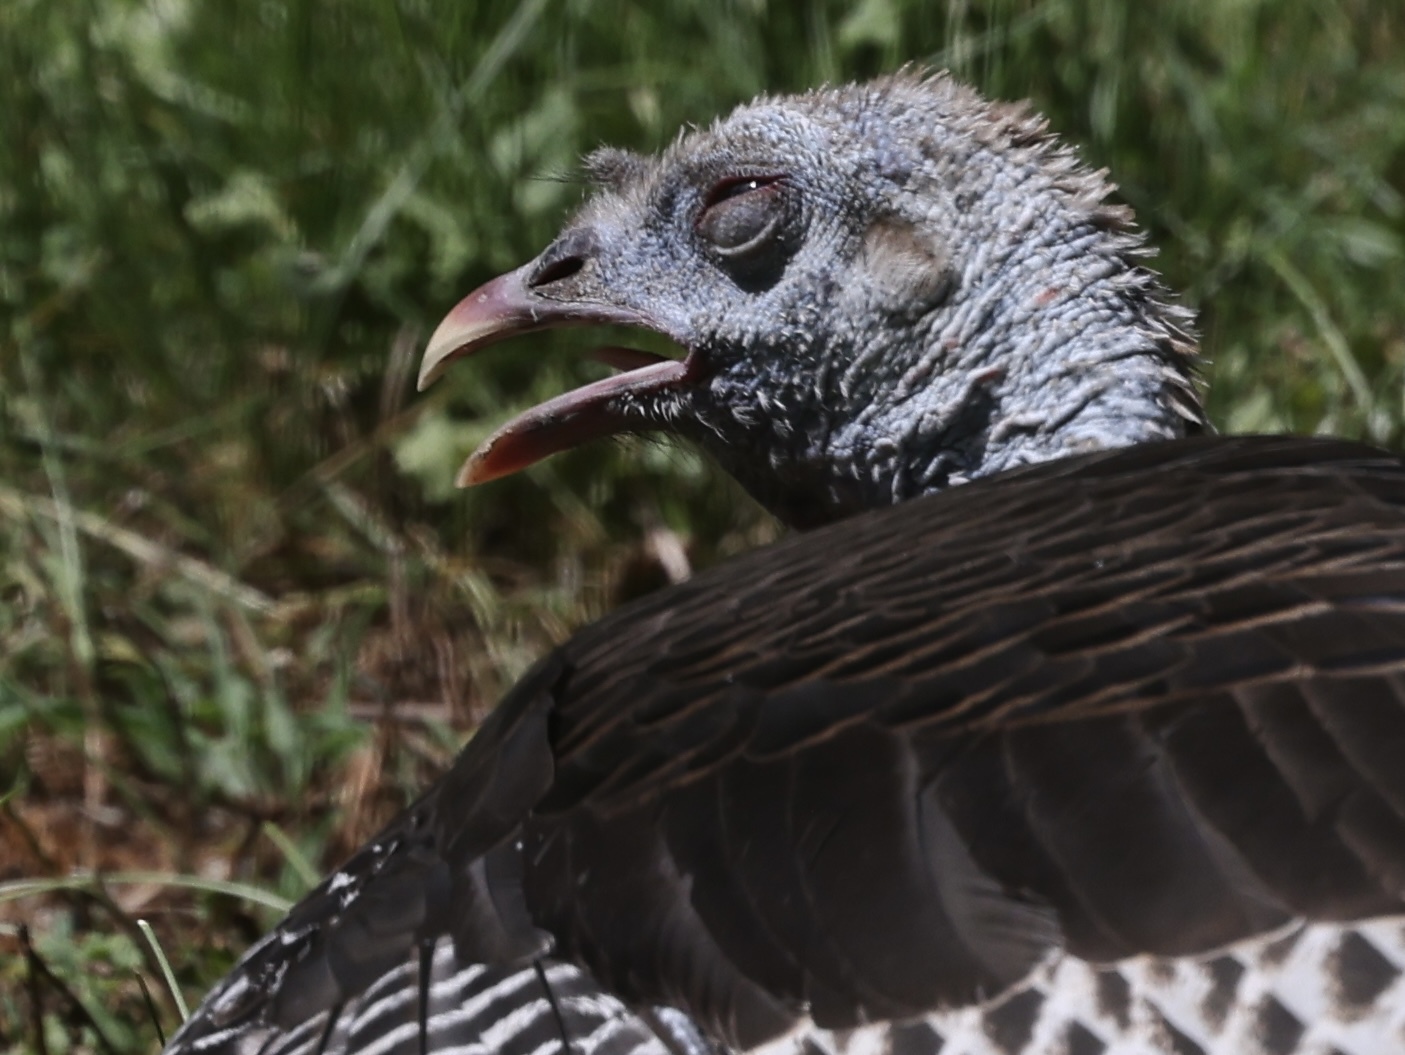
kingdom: Animalia
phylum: Chordata
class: Aves
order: Galliformes
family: Phasianidae
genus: Meleagris
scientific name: Meleagris gallopavo
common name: Wild turkey
